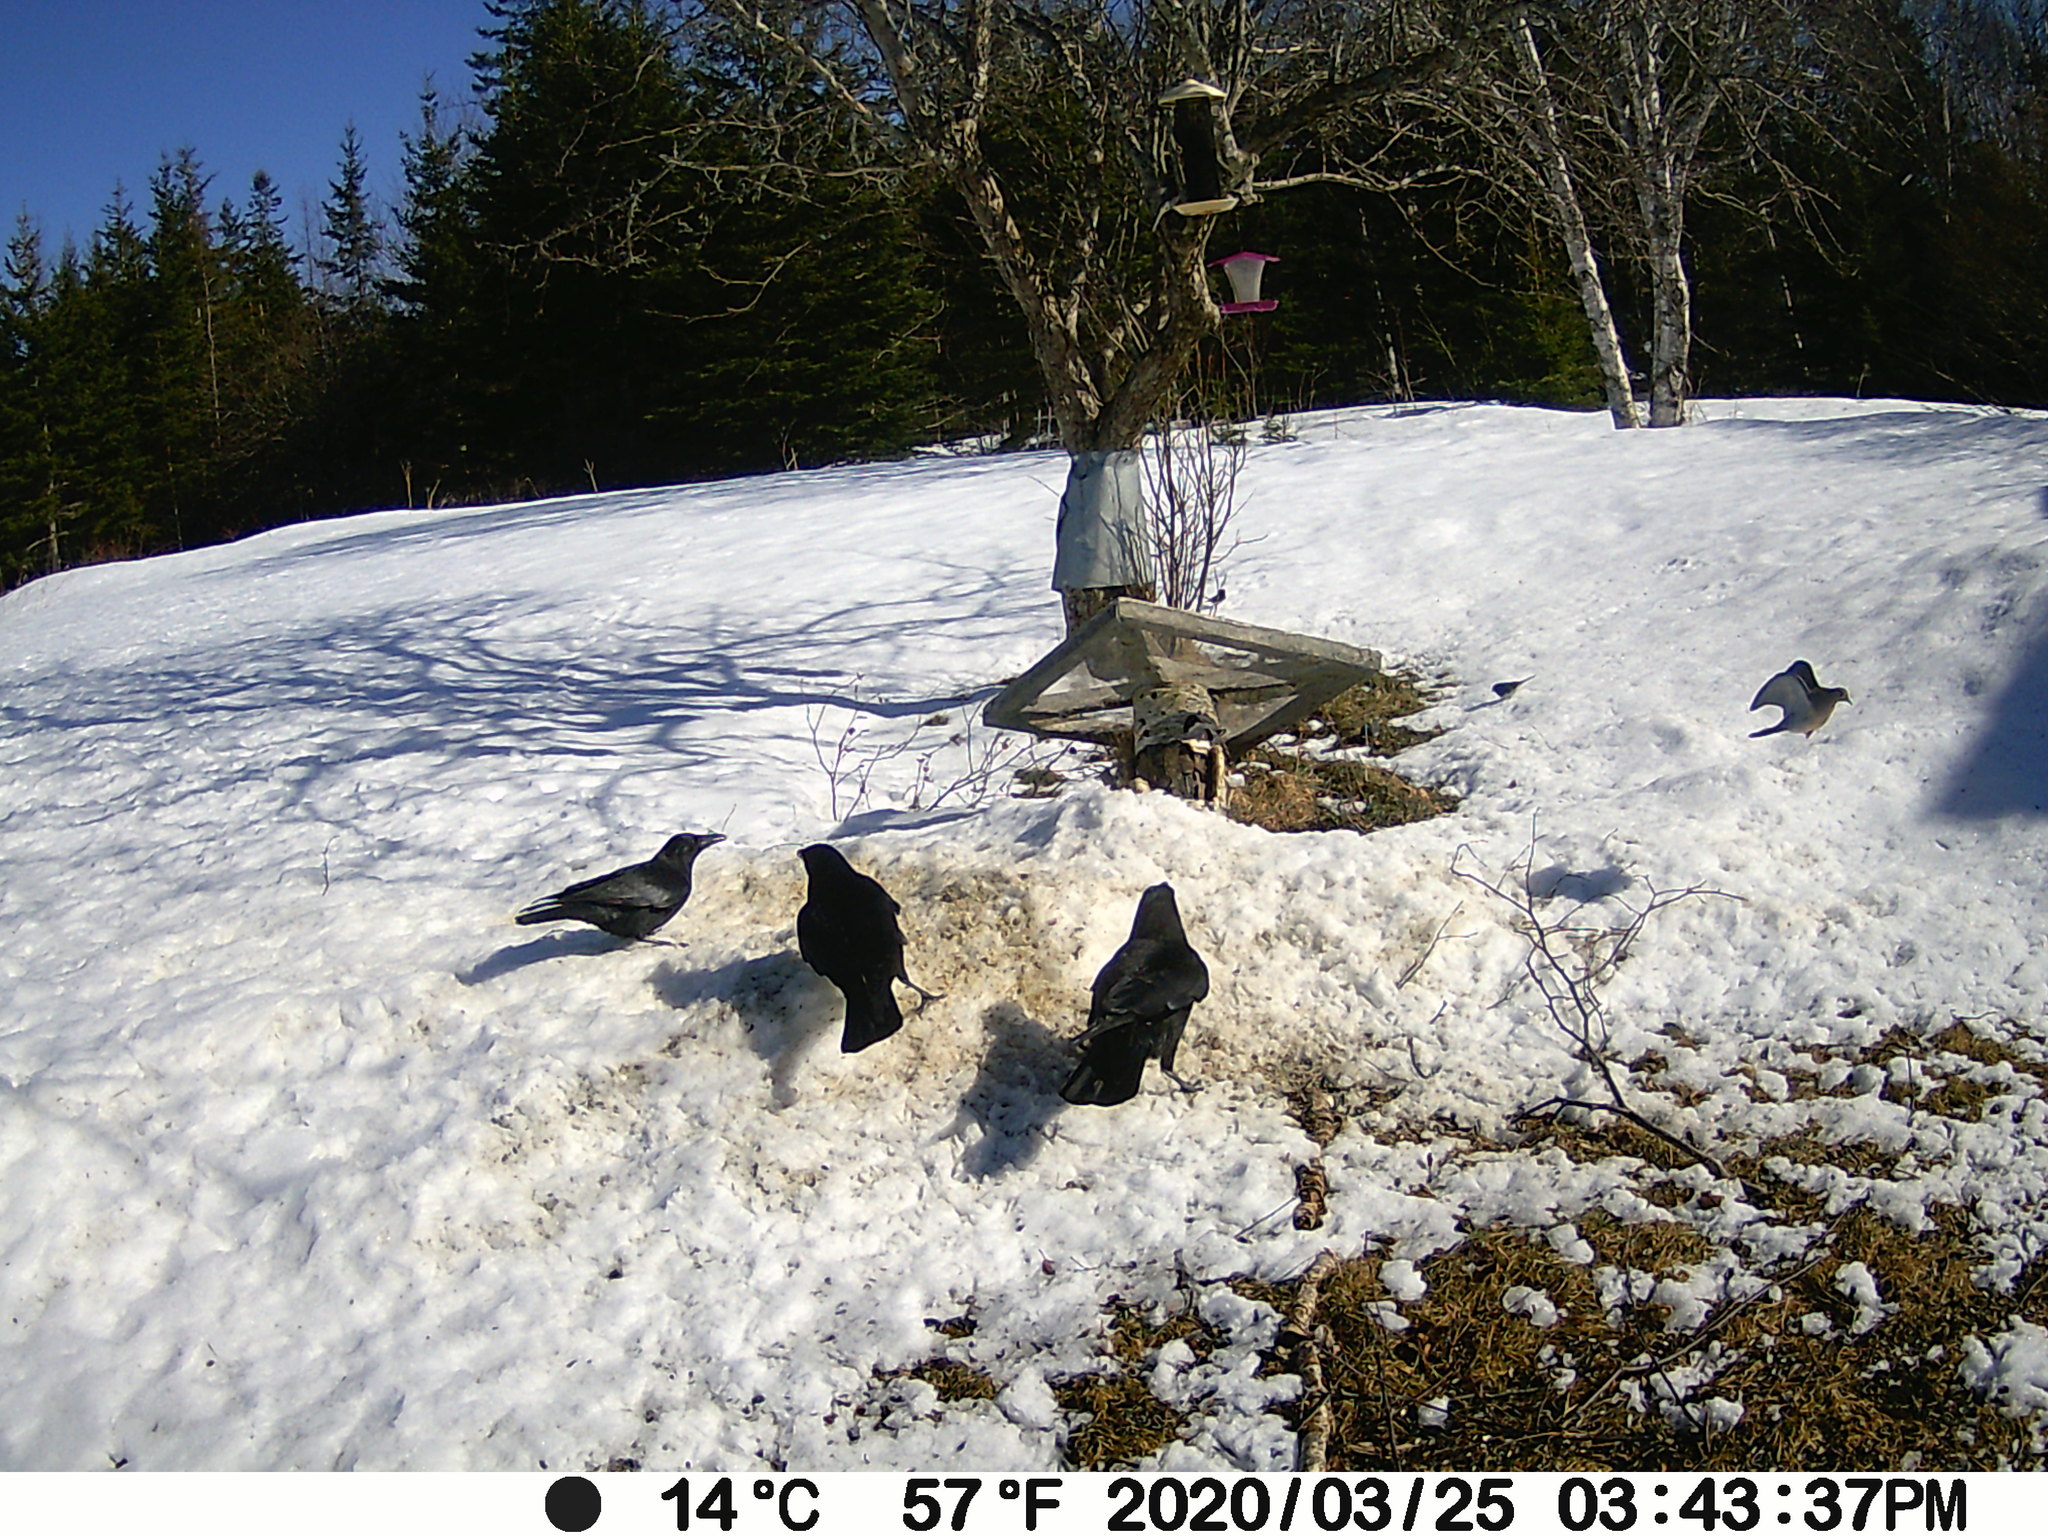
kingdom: Animalia
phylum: Chordata
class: Aves
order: Columbiformes
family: Columbidae
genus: Zenaida
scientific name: Zenaida macroura
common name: Mourning dove
